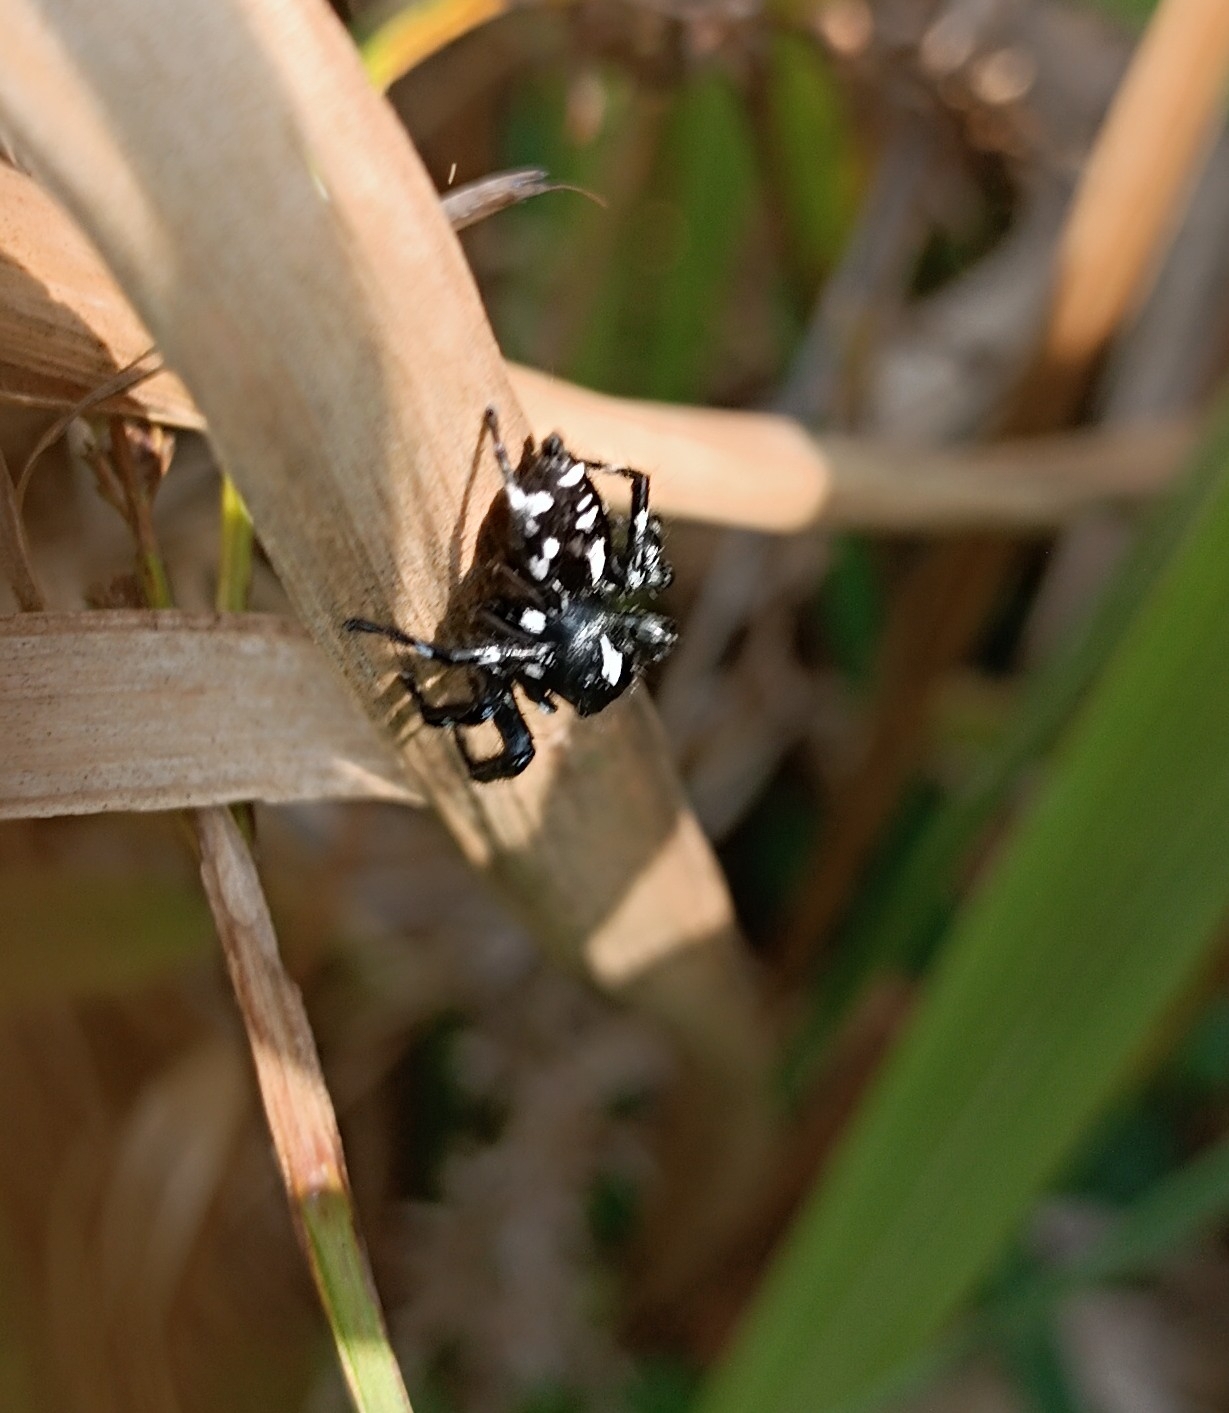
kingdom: Animalia
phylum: Arthropoda
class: Arachnida
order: Araneae
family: Salticidae
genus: Phiale
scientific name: Phiale guttata
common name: Jumping spiders
